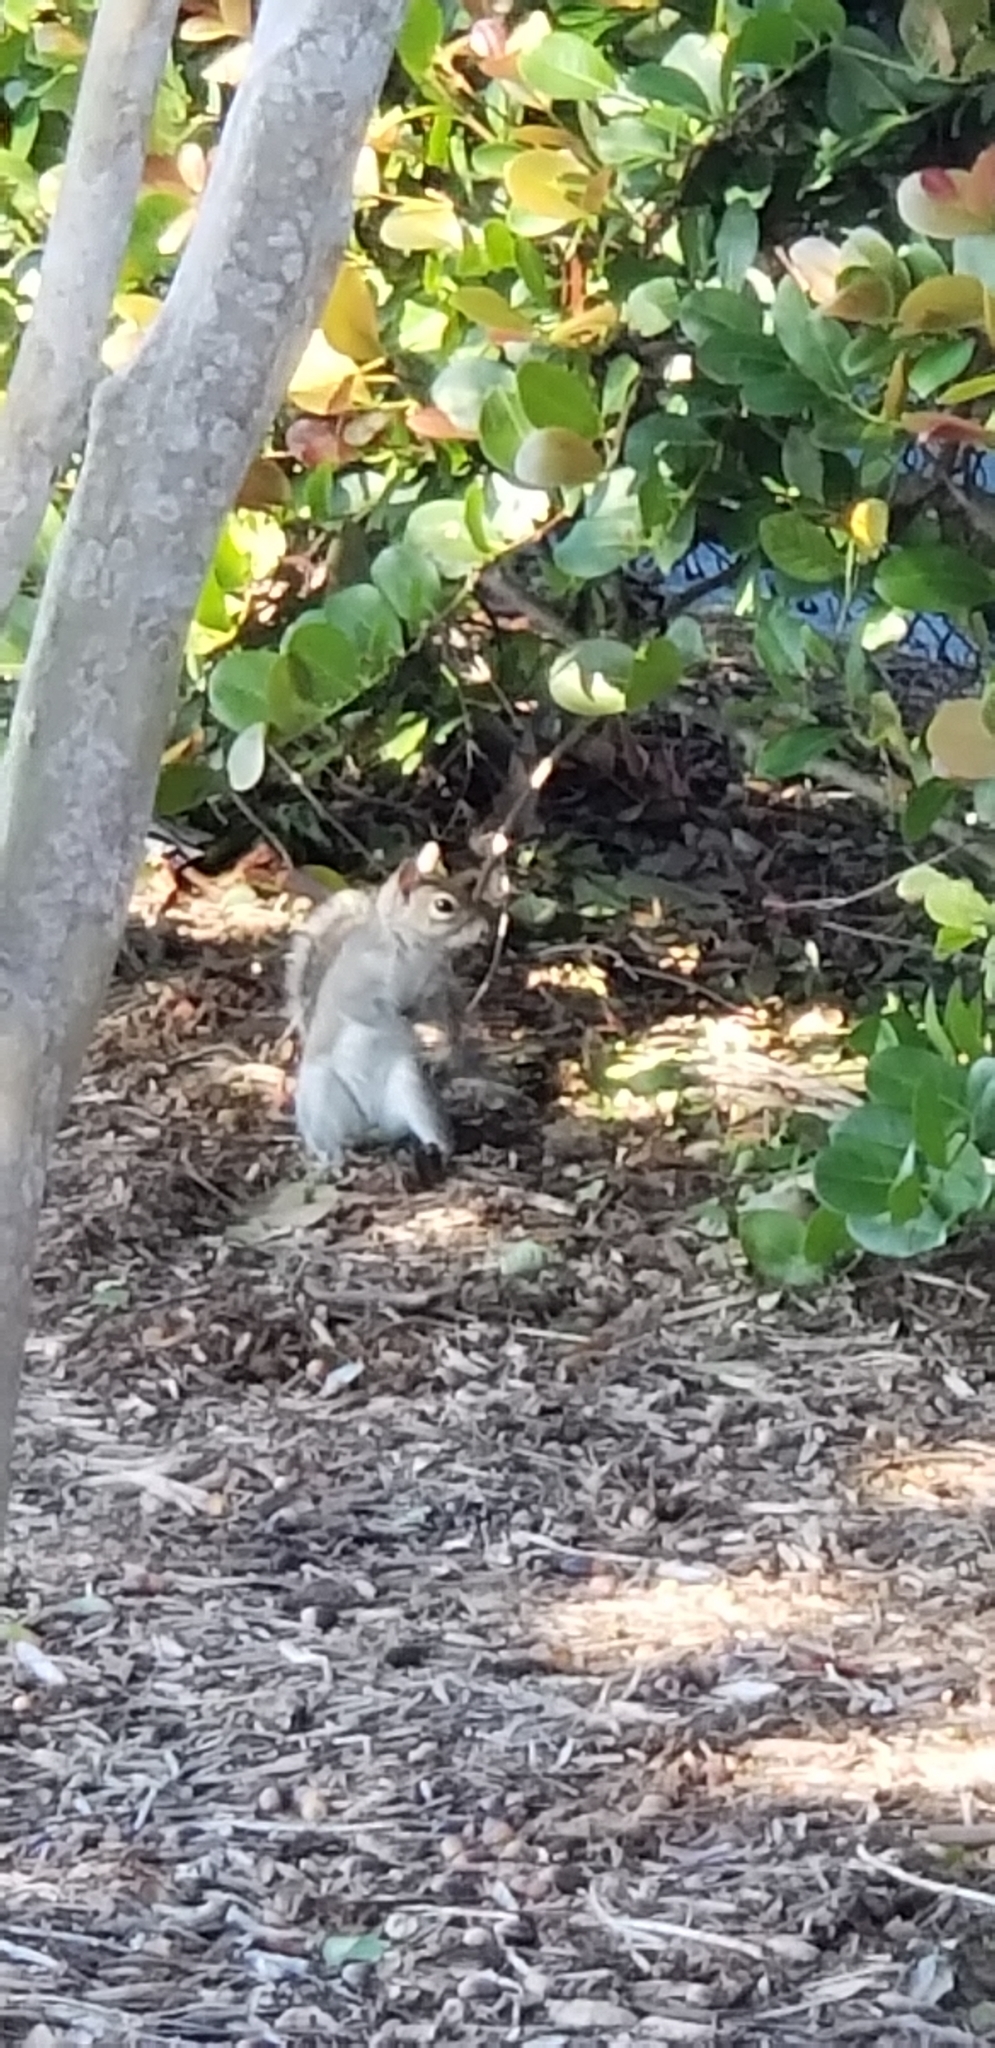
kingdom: Animalia
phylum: Chordata
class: Mammalia
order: Rodentia
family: Sciuridae
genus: Sciurus
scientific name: Sciurus carolinensis
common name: Eastern gray squirrel
